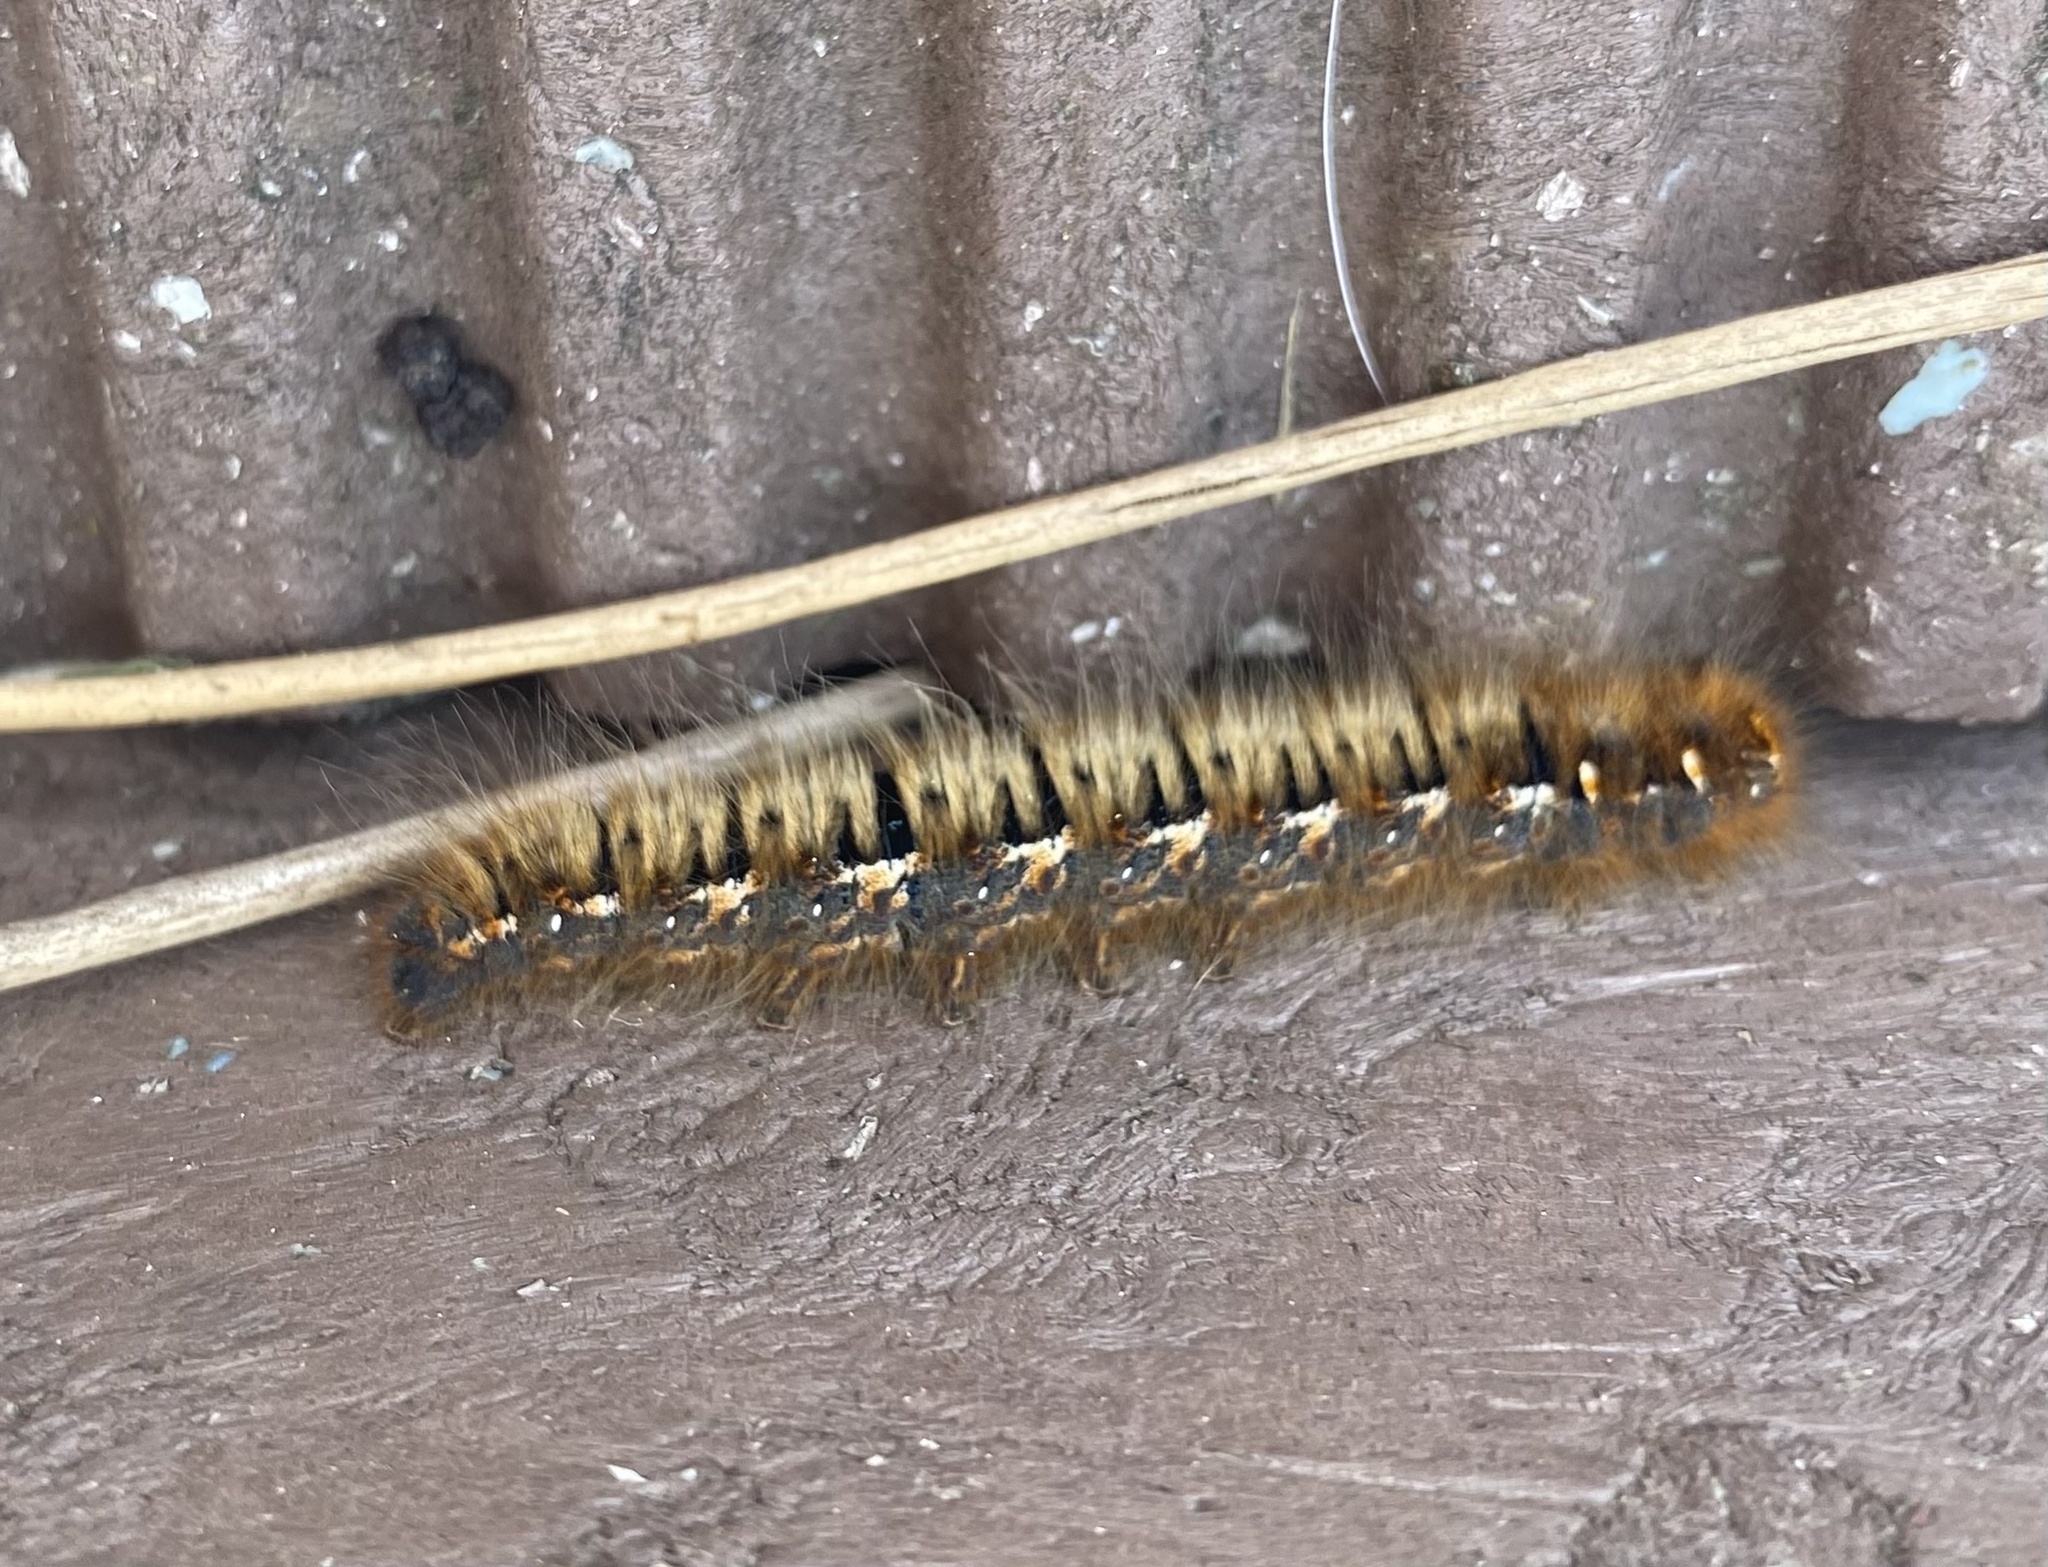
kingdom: Animalia
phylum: Arthropoda
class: Insecta
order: Lepidoptera
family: Lasiocampidae
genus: Lasiocampa
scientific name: Lasiocampa quercus
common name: Oak eggar
